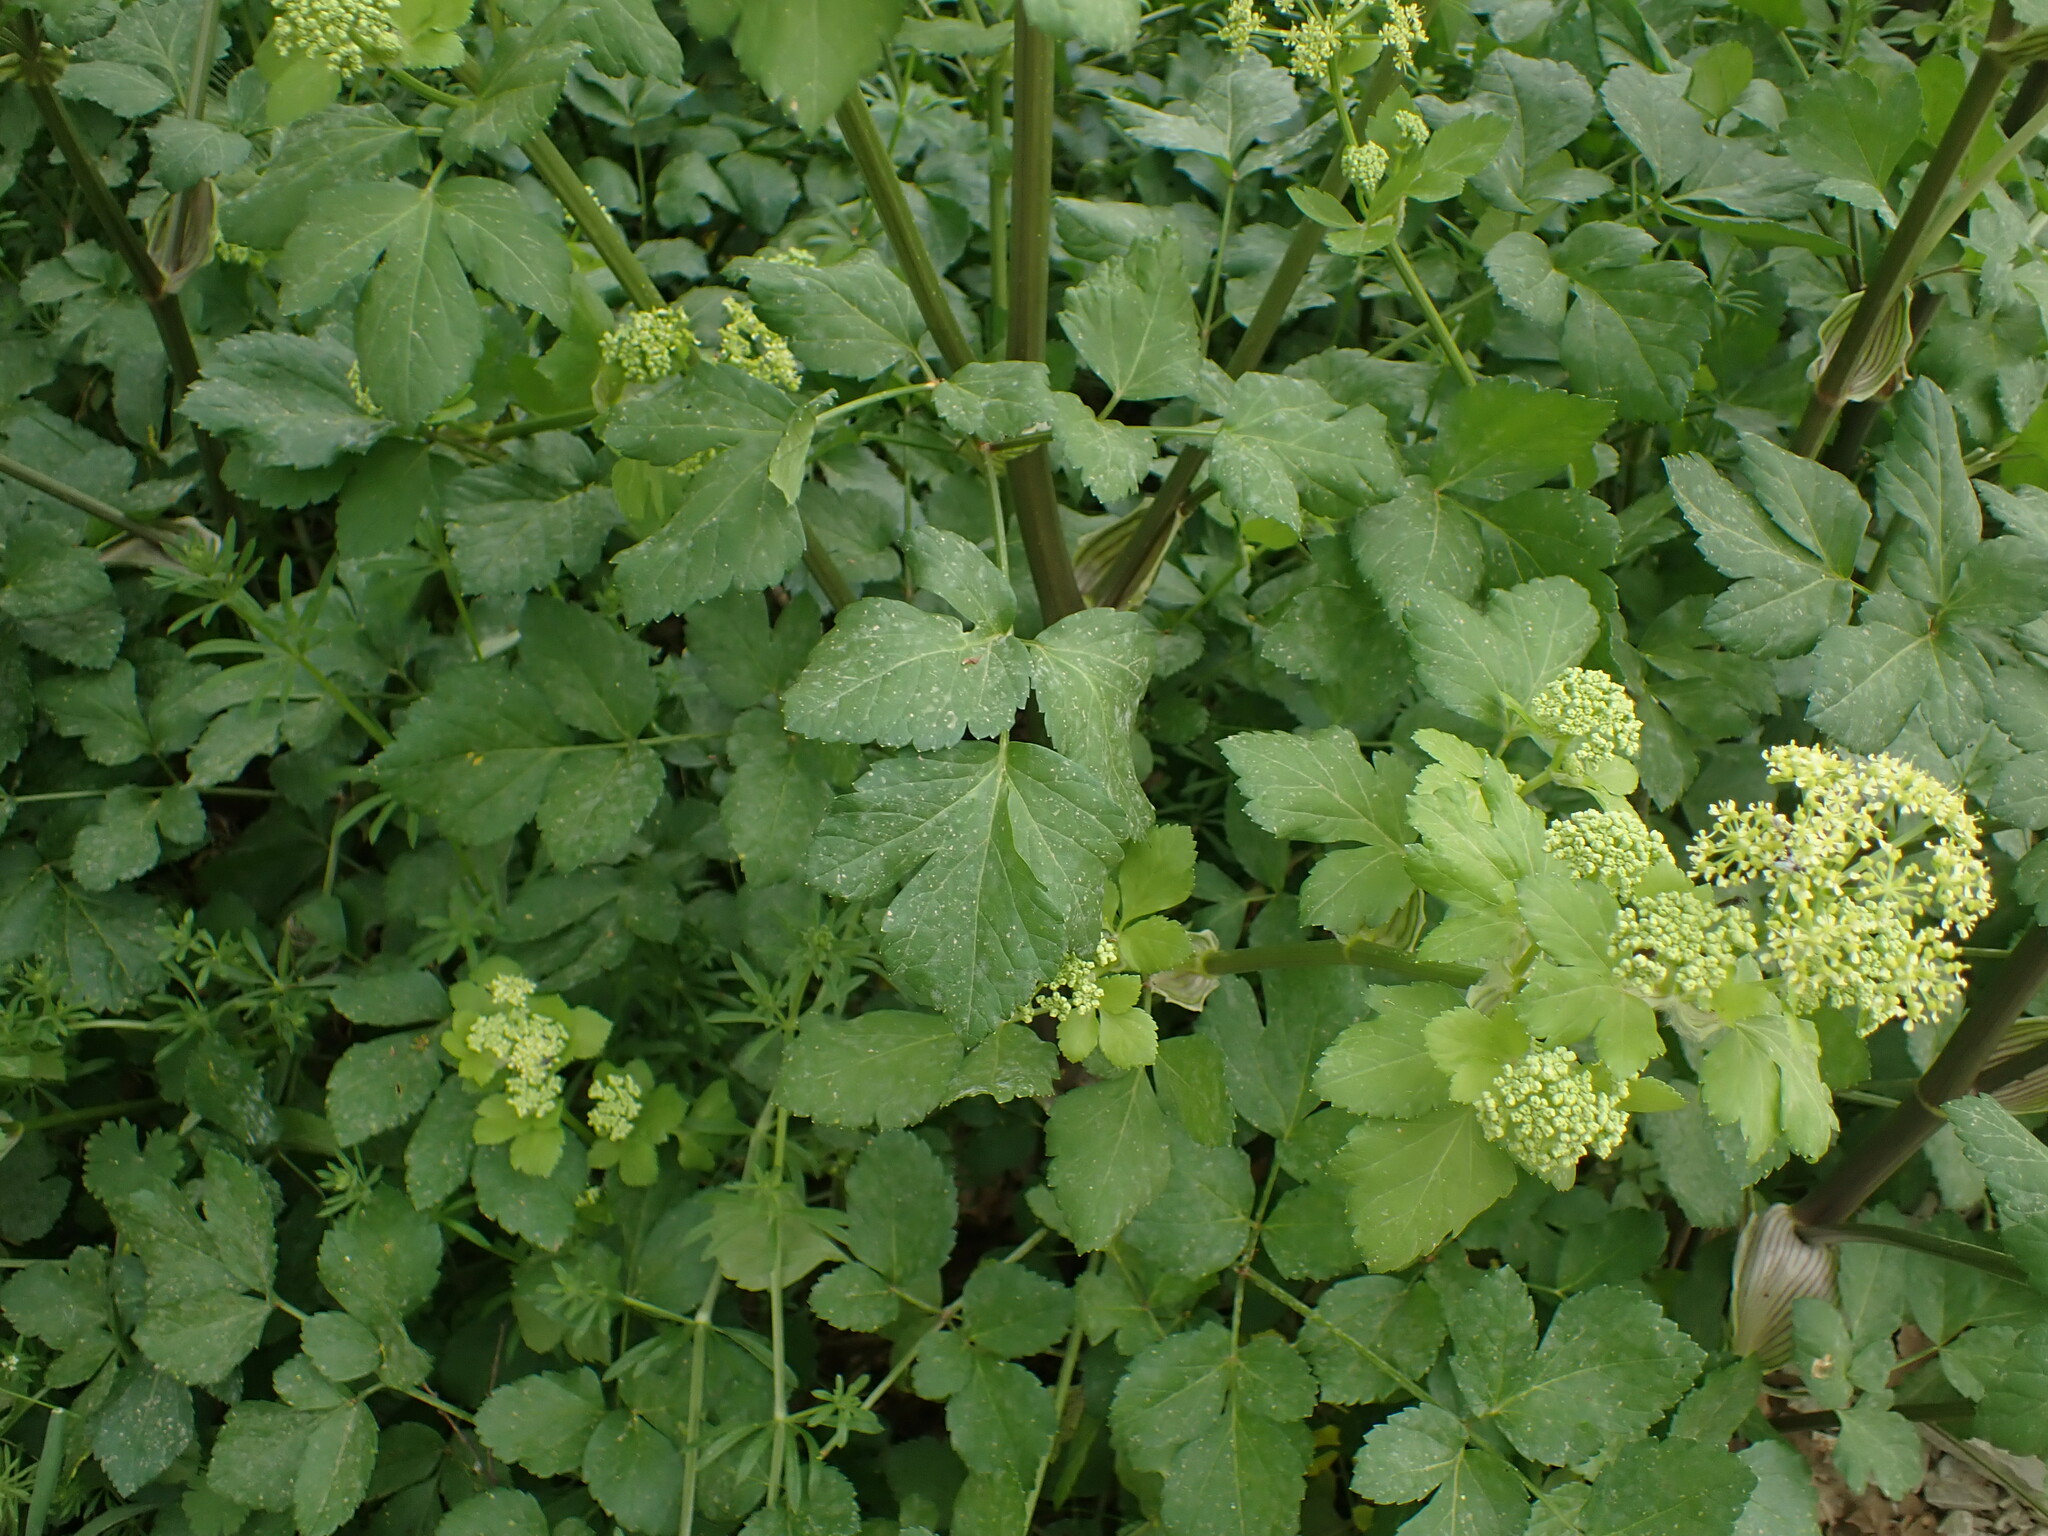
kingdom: Plantae
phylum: Tracheophyta
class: Magnoliopsida
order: Apiales
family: Apiaceae
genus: Smyrnium
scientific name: Smyrnium olusatrum
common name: Alexanders
